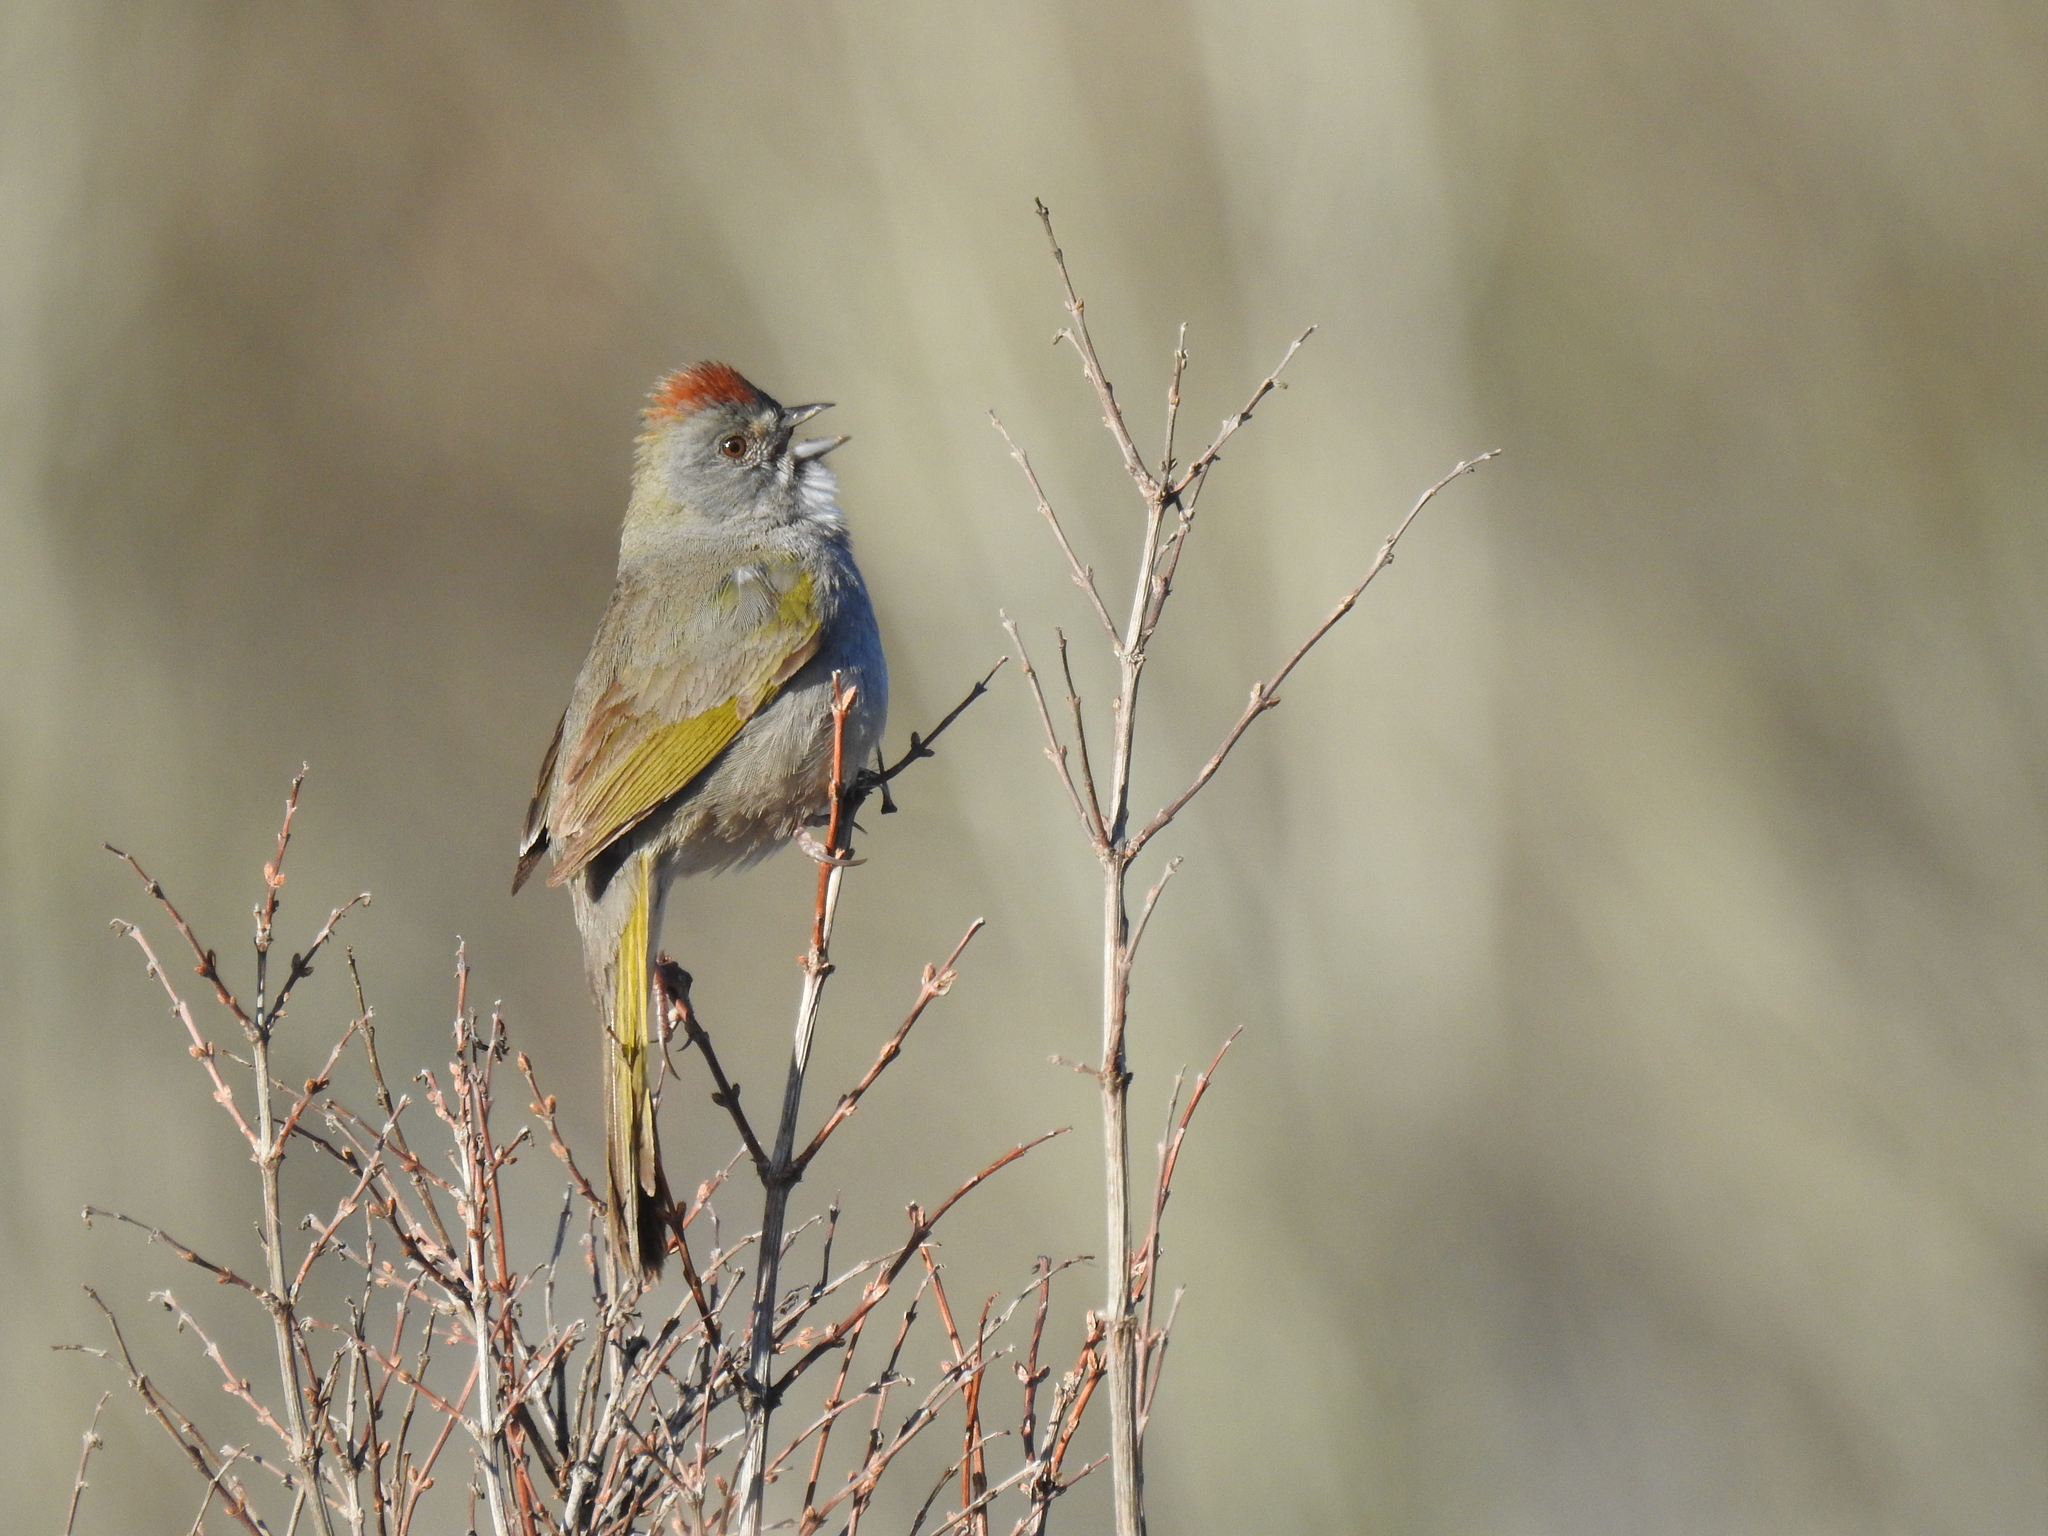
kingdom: Animalia
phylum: Chordata
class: Aves
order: Passeriformes
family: Passerellidae
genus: Pipilo
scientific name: Pipilo chlorurus
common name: Green-tailed towhee
